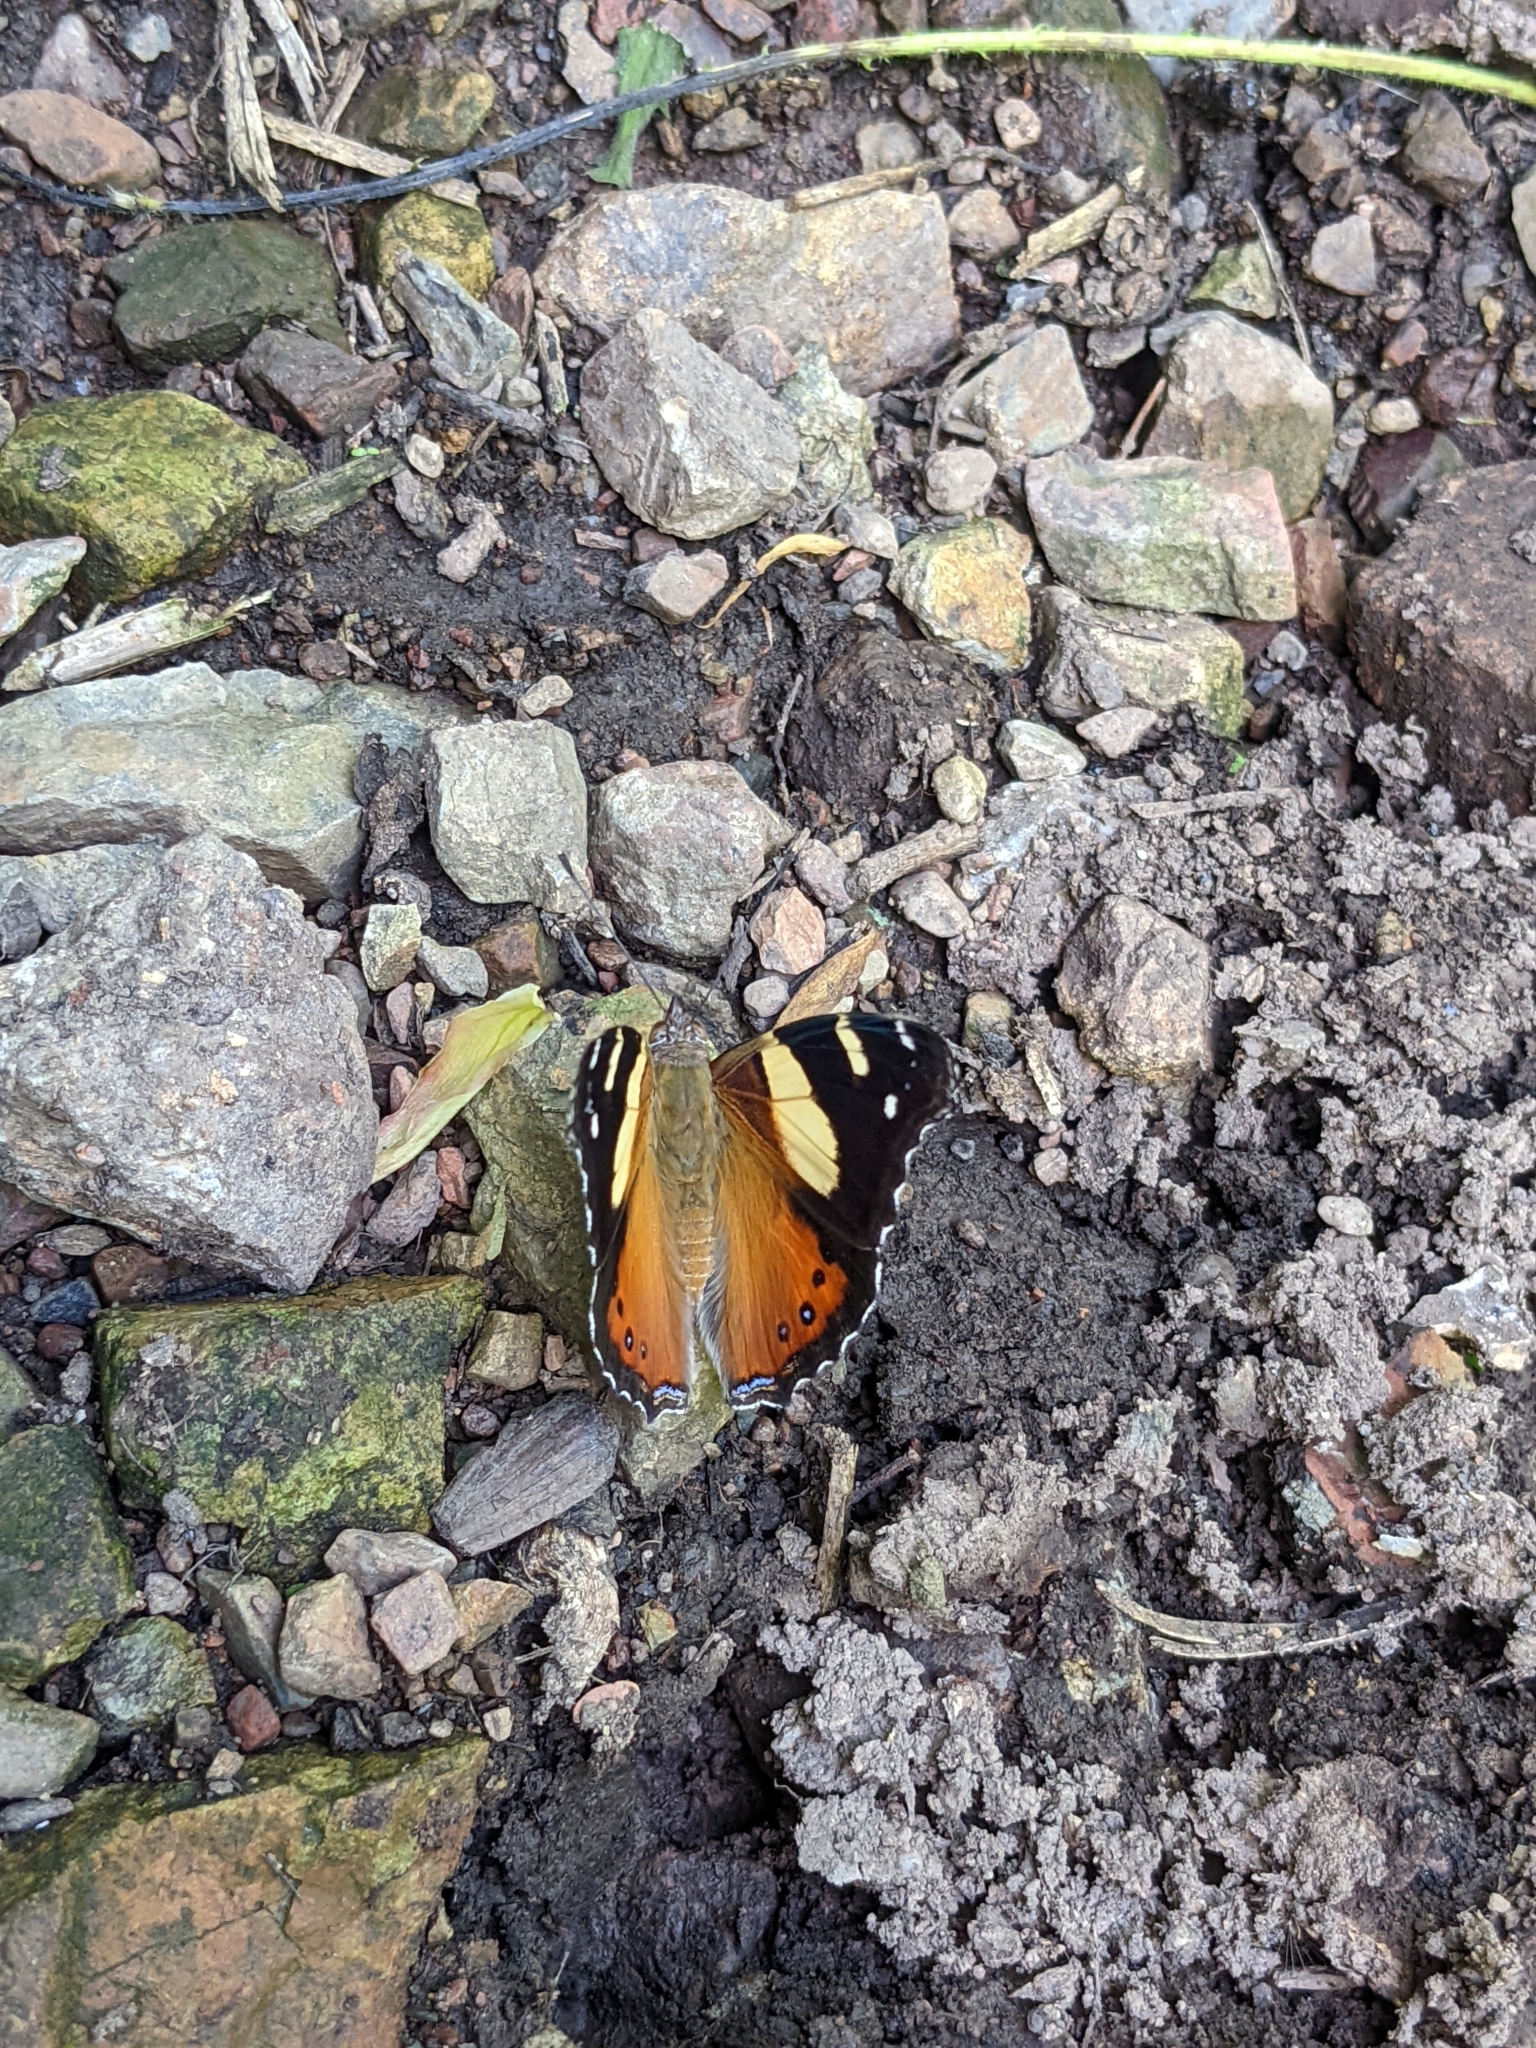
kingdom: Animalia
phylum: Arthropoda
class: Insecta
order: Lepidoptera
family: Nymphalidae
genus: Vanessa
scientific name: Vanessa itea
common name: Yellow admiral
